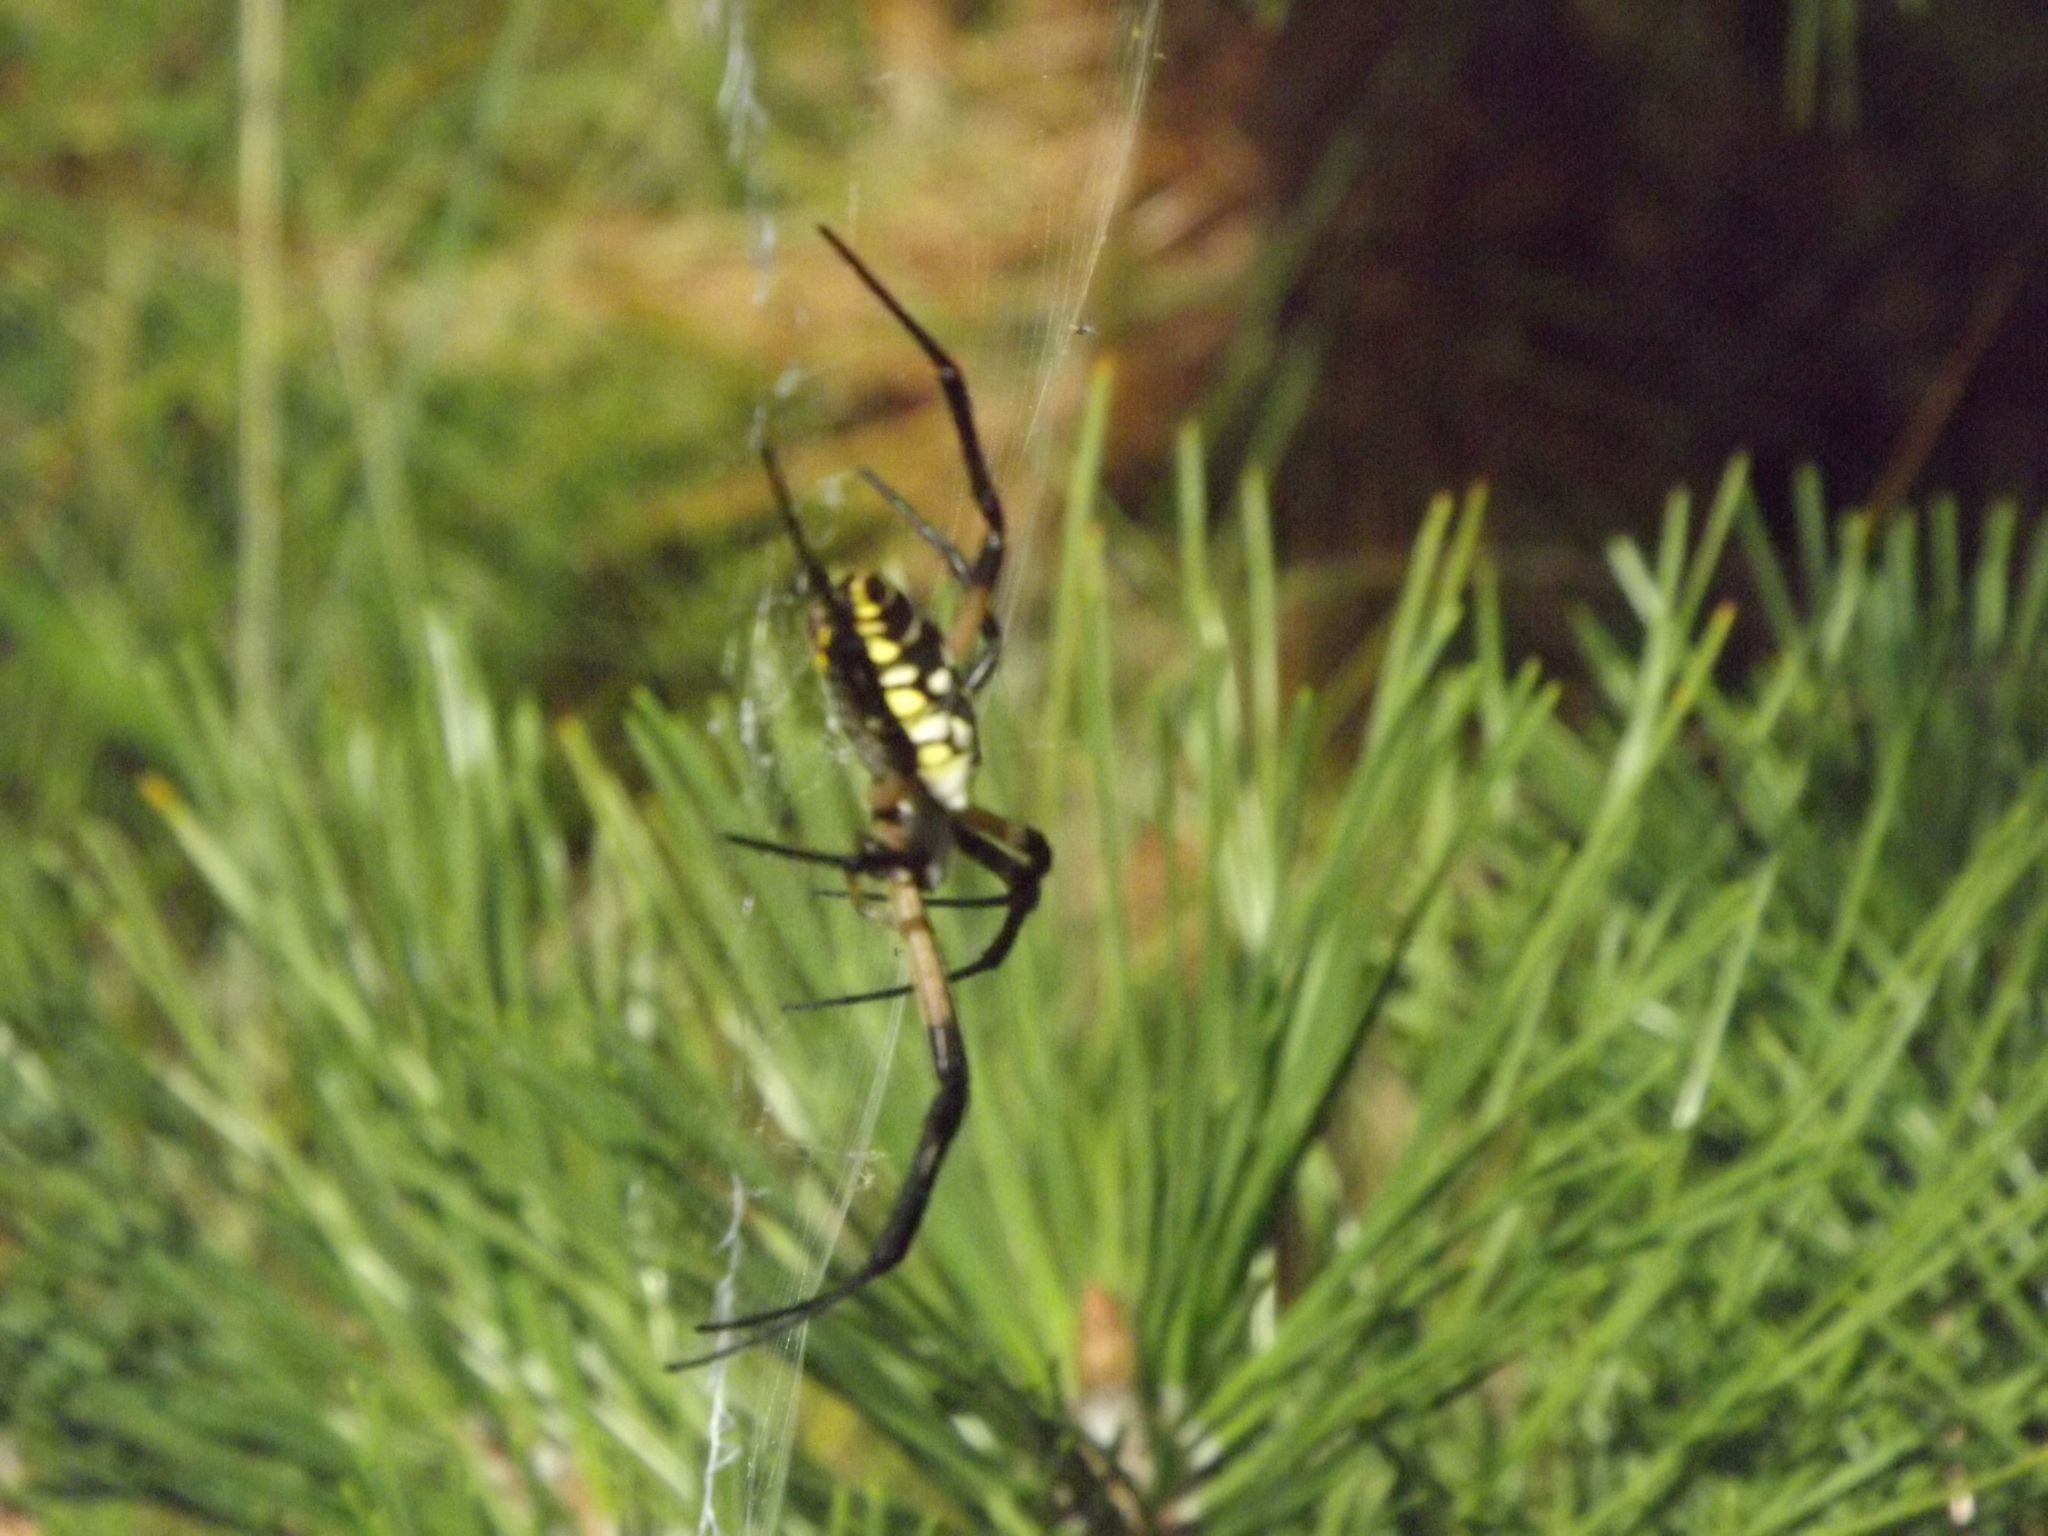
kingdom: Animalia
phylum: Arthropoda
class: Arachnida
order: Araneae
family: Araneidae
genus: Argiope
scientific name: Argiope aurantia
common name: Orb weavers
